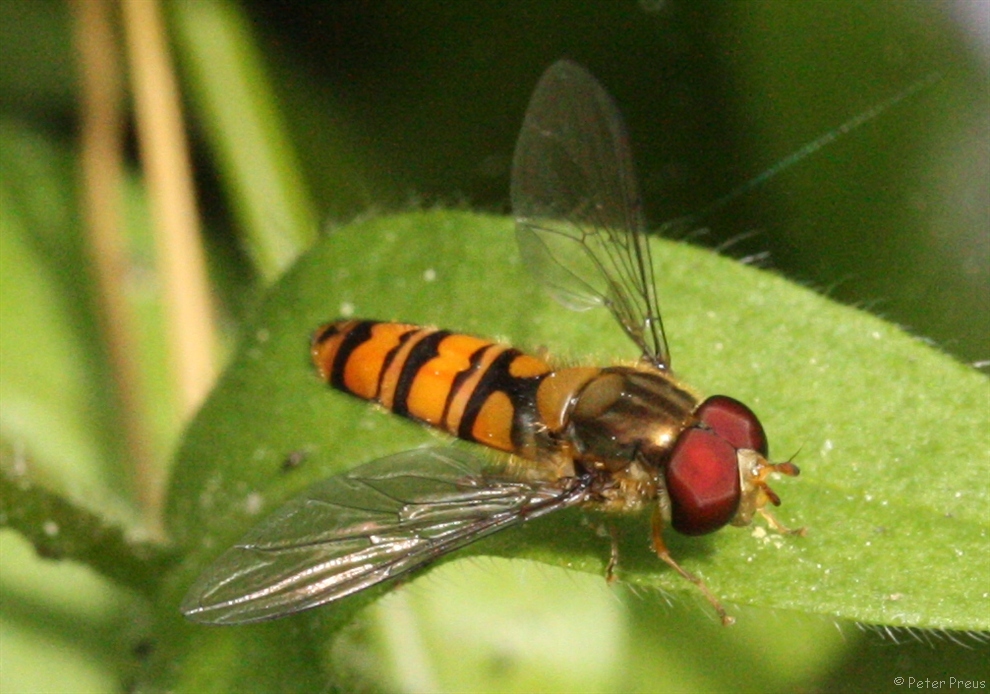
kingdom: Animalia
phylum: Arthropoda
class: Insecta
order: Diptera
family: Syrphidae
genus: Episyrphus
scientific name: Episyrphus balteatus
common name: Marmalade hoverfly
